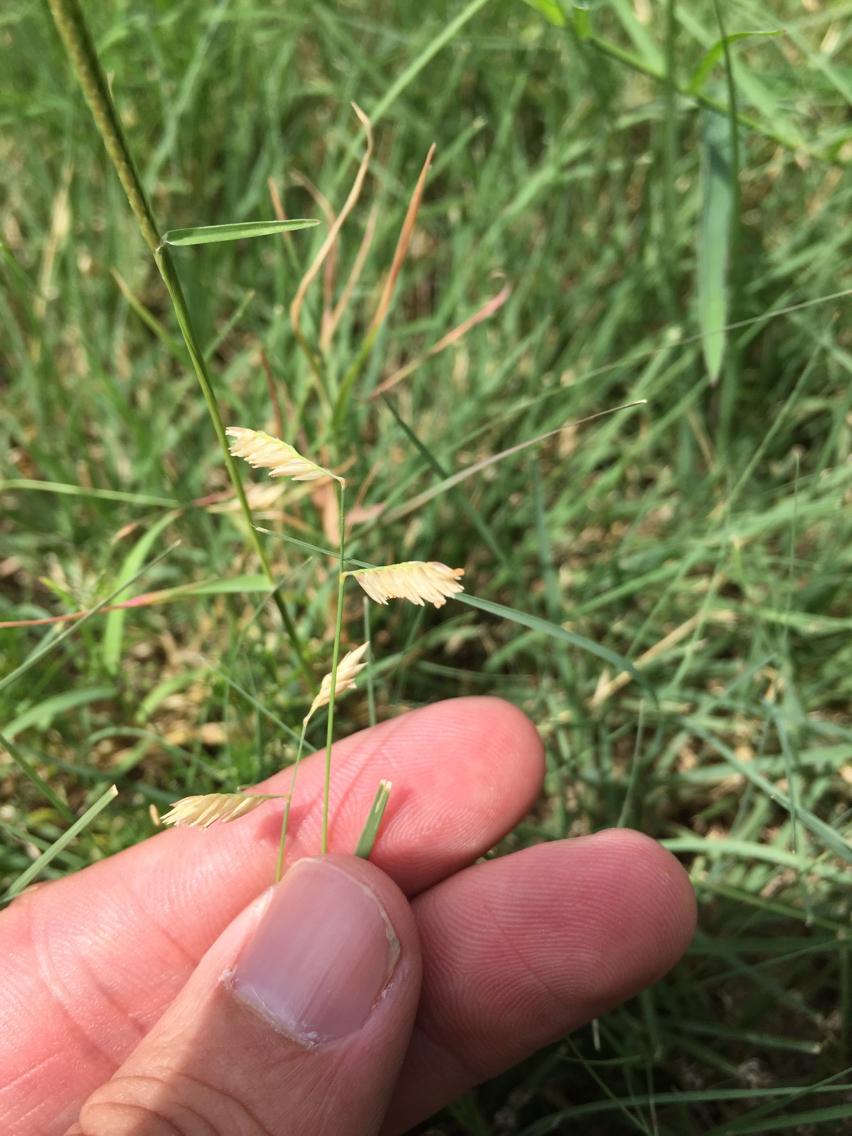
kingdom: Plantae
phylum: Tracheophyta
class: Liliopsida
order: Poales
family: Poaceae
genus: Bouteloua
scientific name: Bouteloua dactyloides
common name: Buffalo grass
